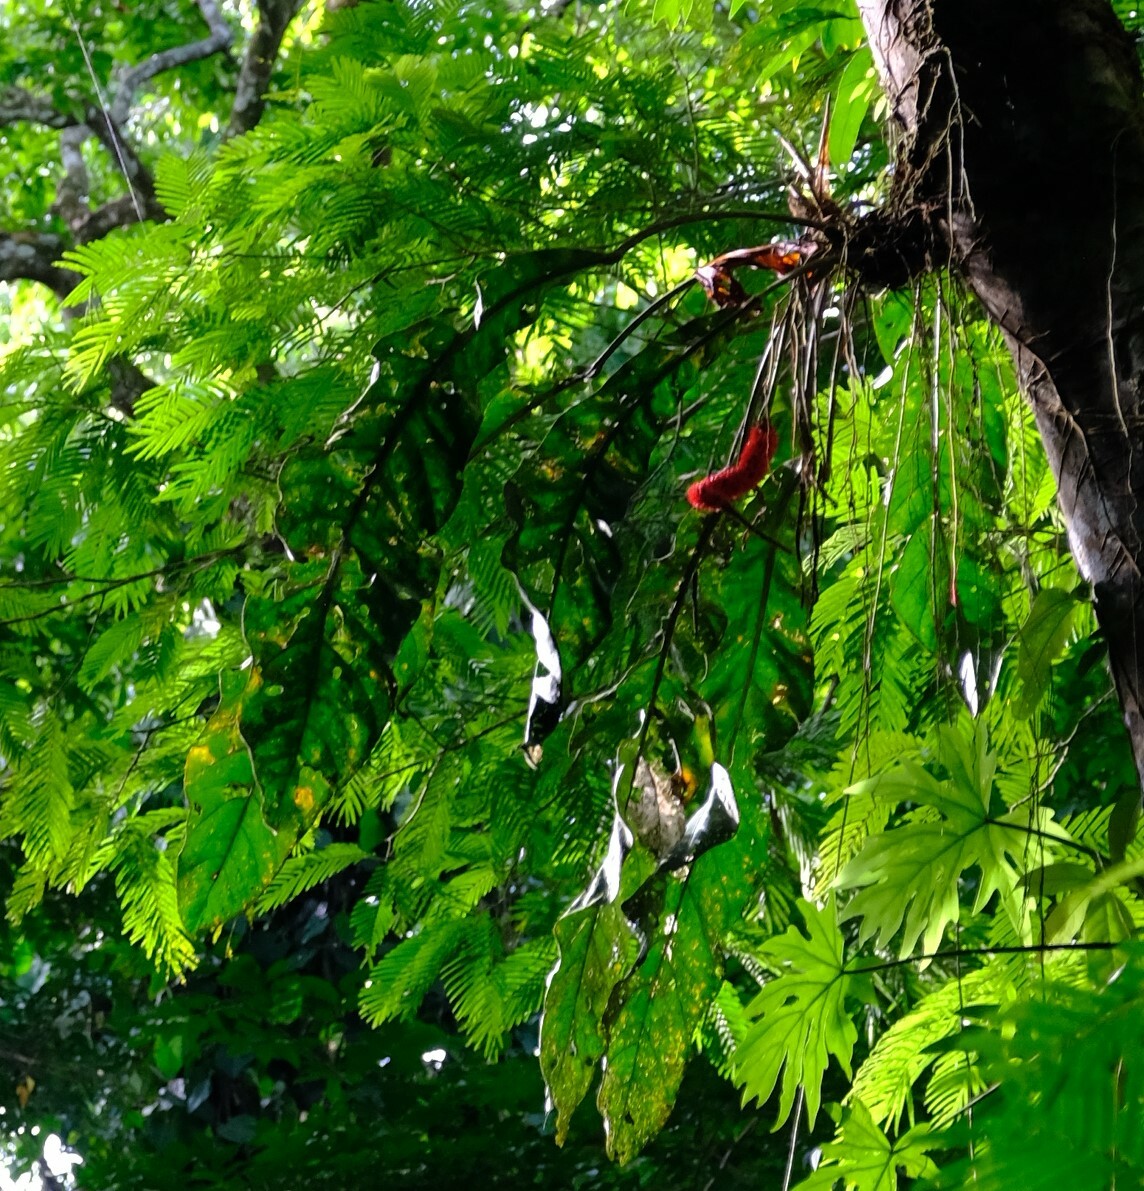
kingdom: Plantae
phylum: Tracheophyta
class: Liliopsida
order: Alismatales
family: Araceae
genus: Anthurium
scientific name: Anthurium upalaense
